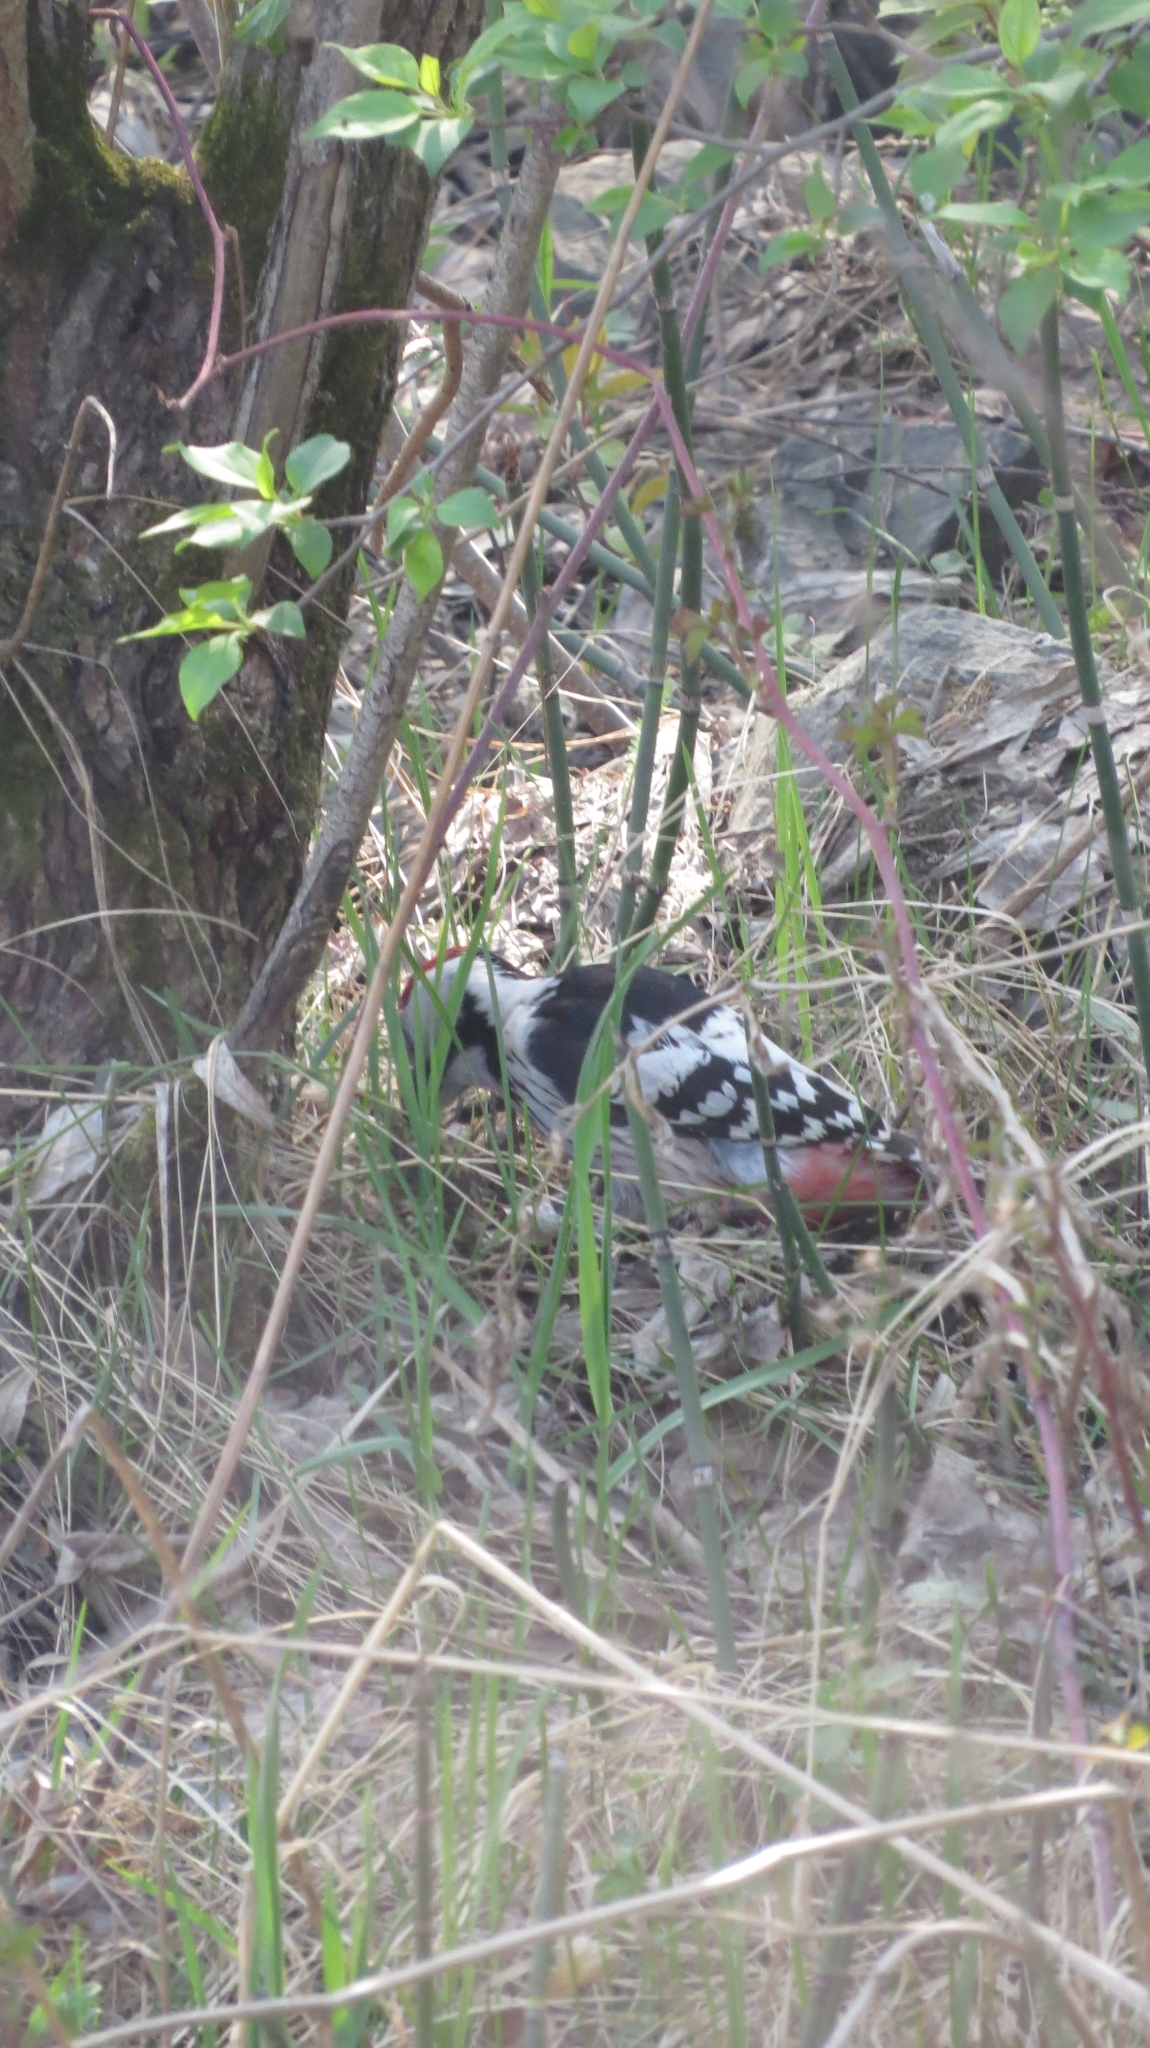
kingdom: Animalia
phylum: Chordata
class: Aves
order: Piciformes
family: Picidae
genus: Dendrocopos
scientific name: Dendrocopos leucotos
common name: White-backed woodpecker
